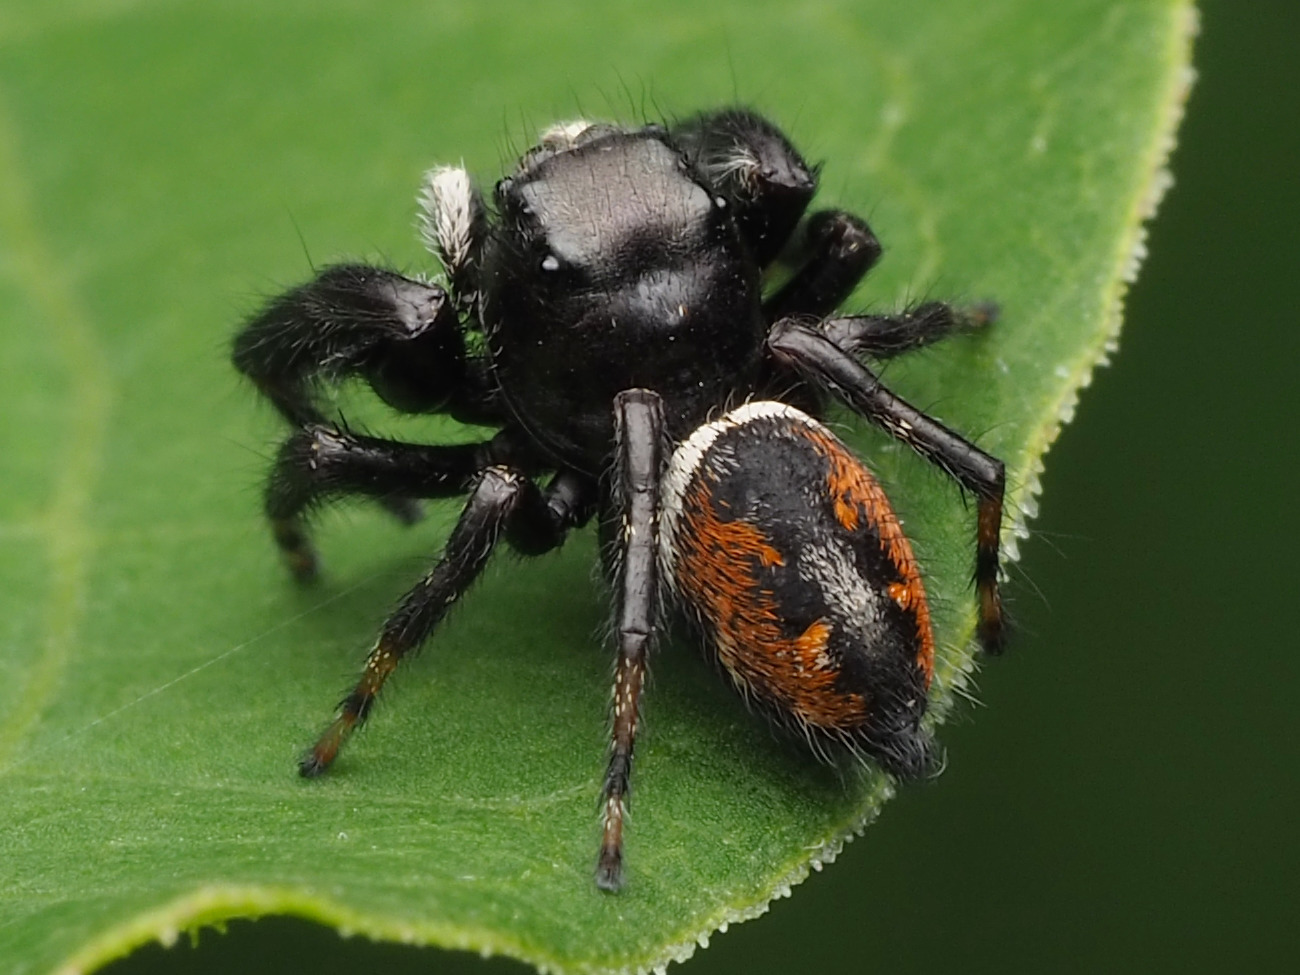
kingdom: Animalia
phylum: Arthropoda
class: Arachnida
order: Araneae
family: Salticidae
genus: Phidippus
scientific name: Phidippus clarus
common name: Brilliant jumping spider
